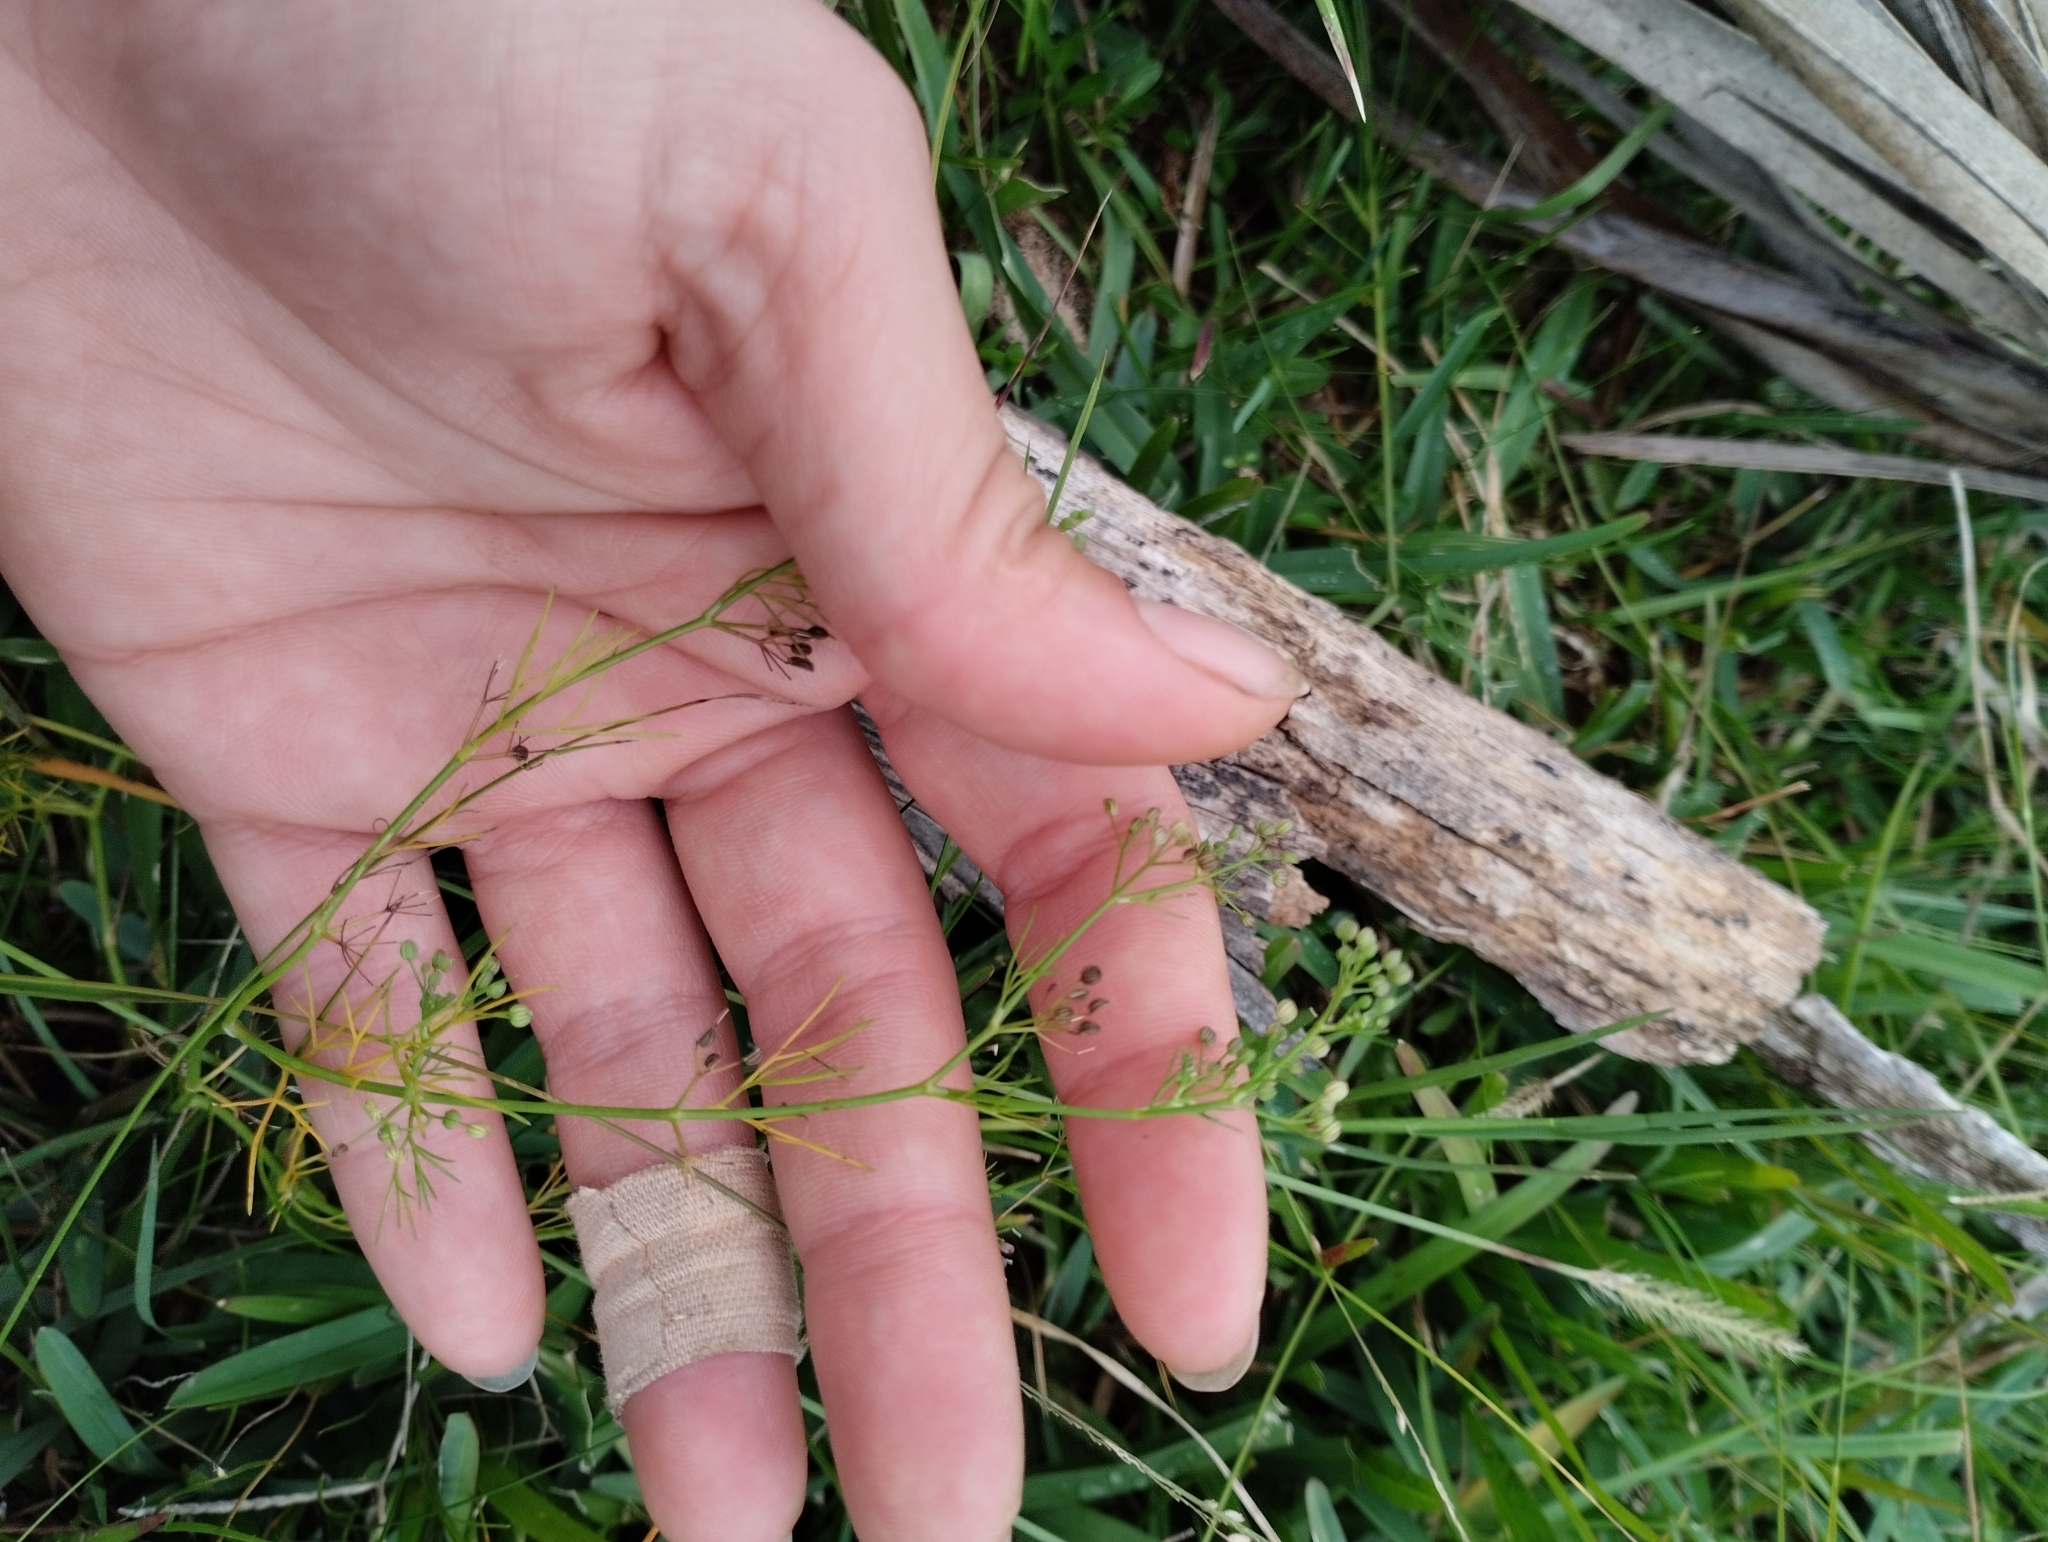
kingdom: Plantae
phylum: Tracheophyta
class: Magnoliopsida
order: Apiales
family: Apiaceae
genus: Cyclospermum
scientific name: Cyclospermum leptophyllum
